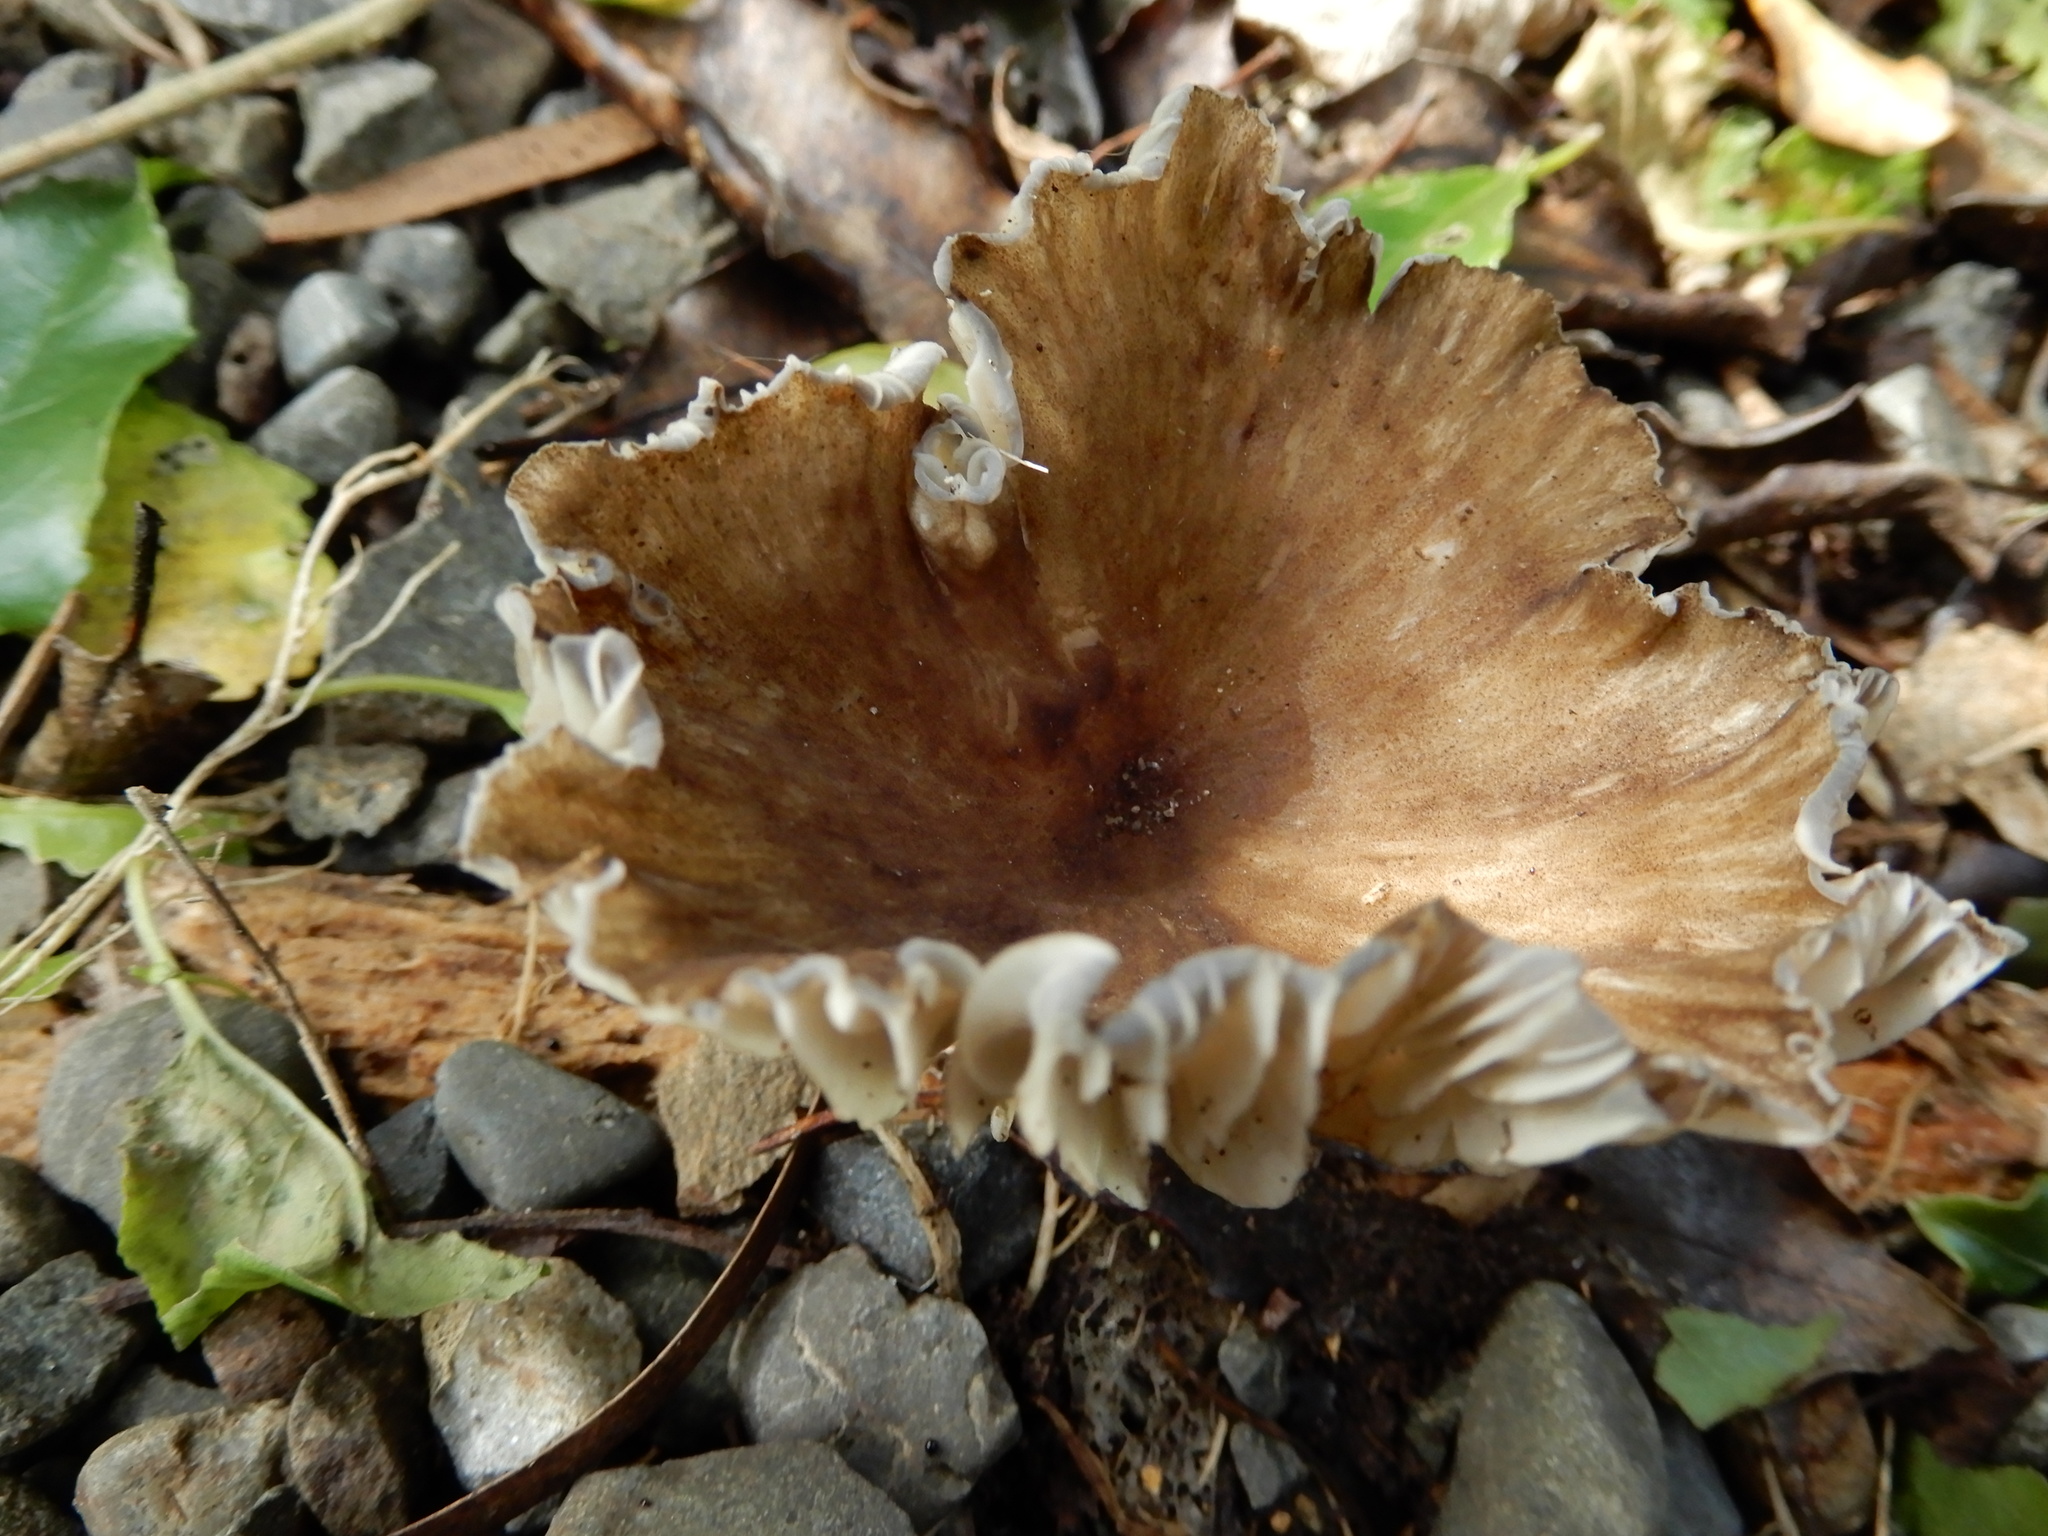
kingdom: Fungi
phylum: Basidiomycota
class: Agaricomycetes
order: Agaricales
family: Marasmiaceae
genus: Gerronema
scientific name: Gerronema
